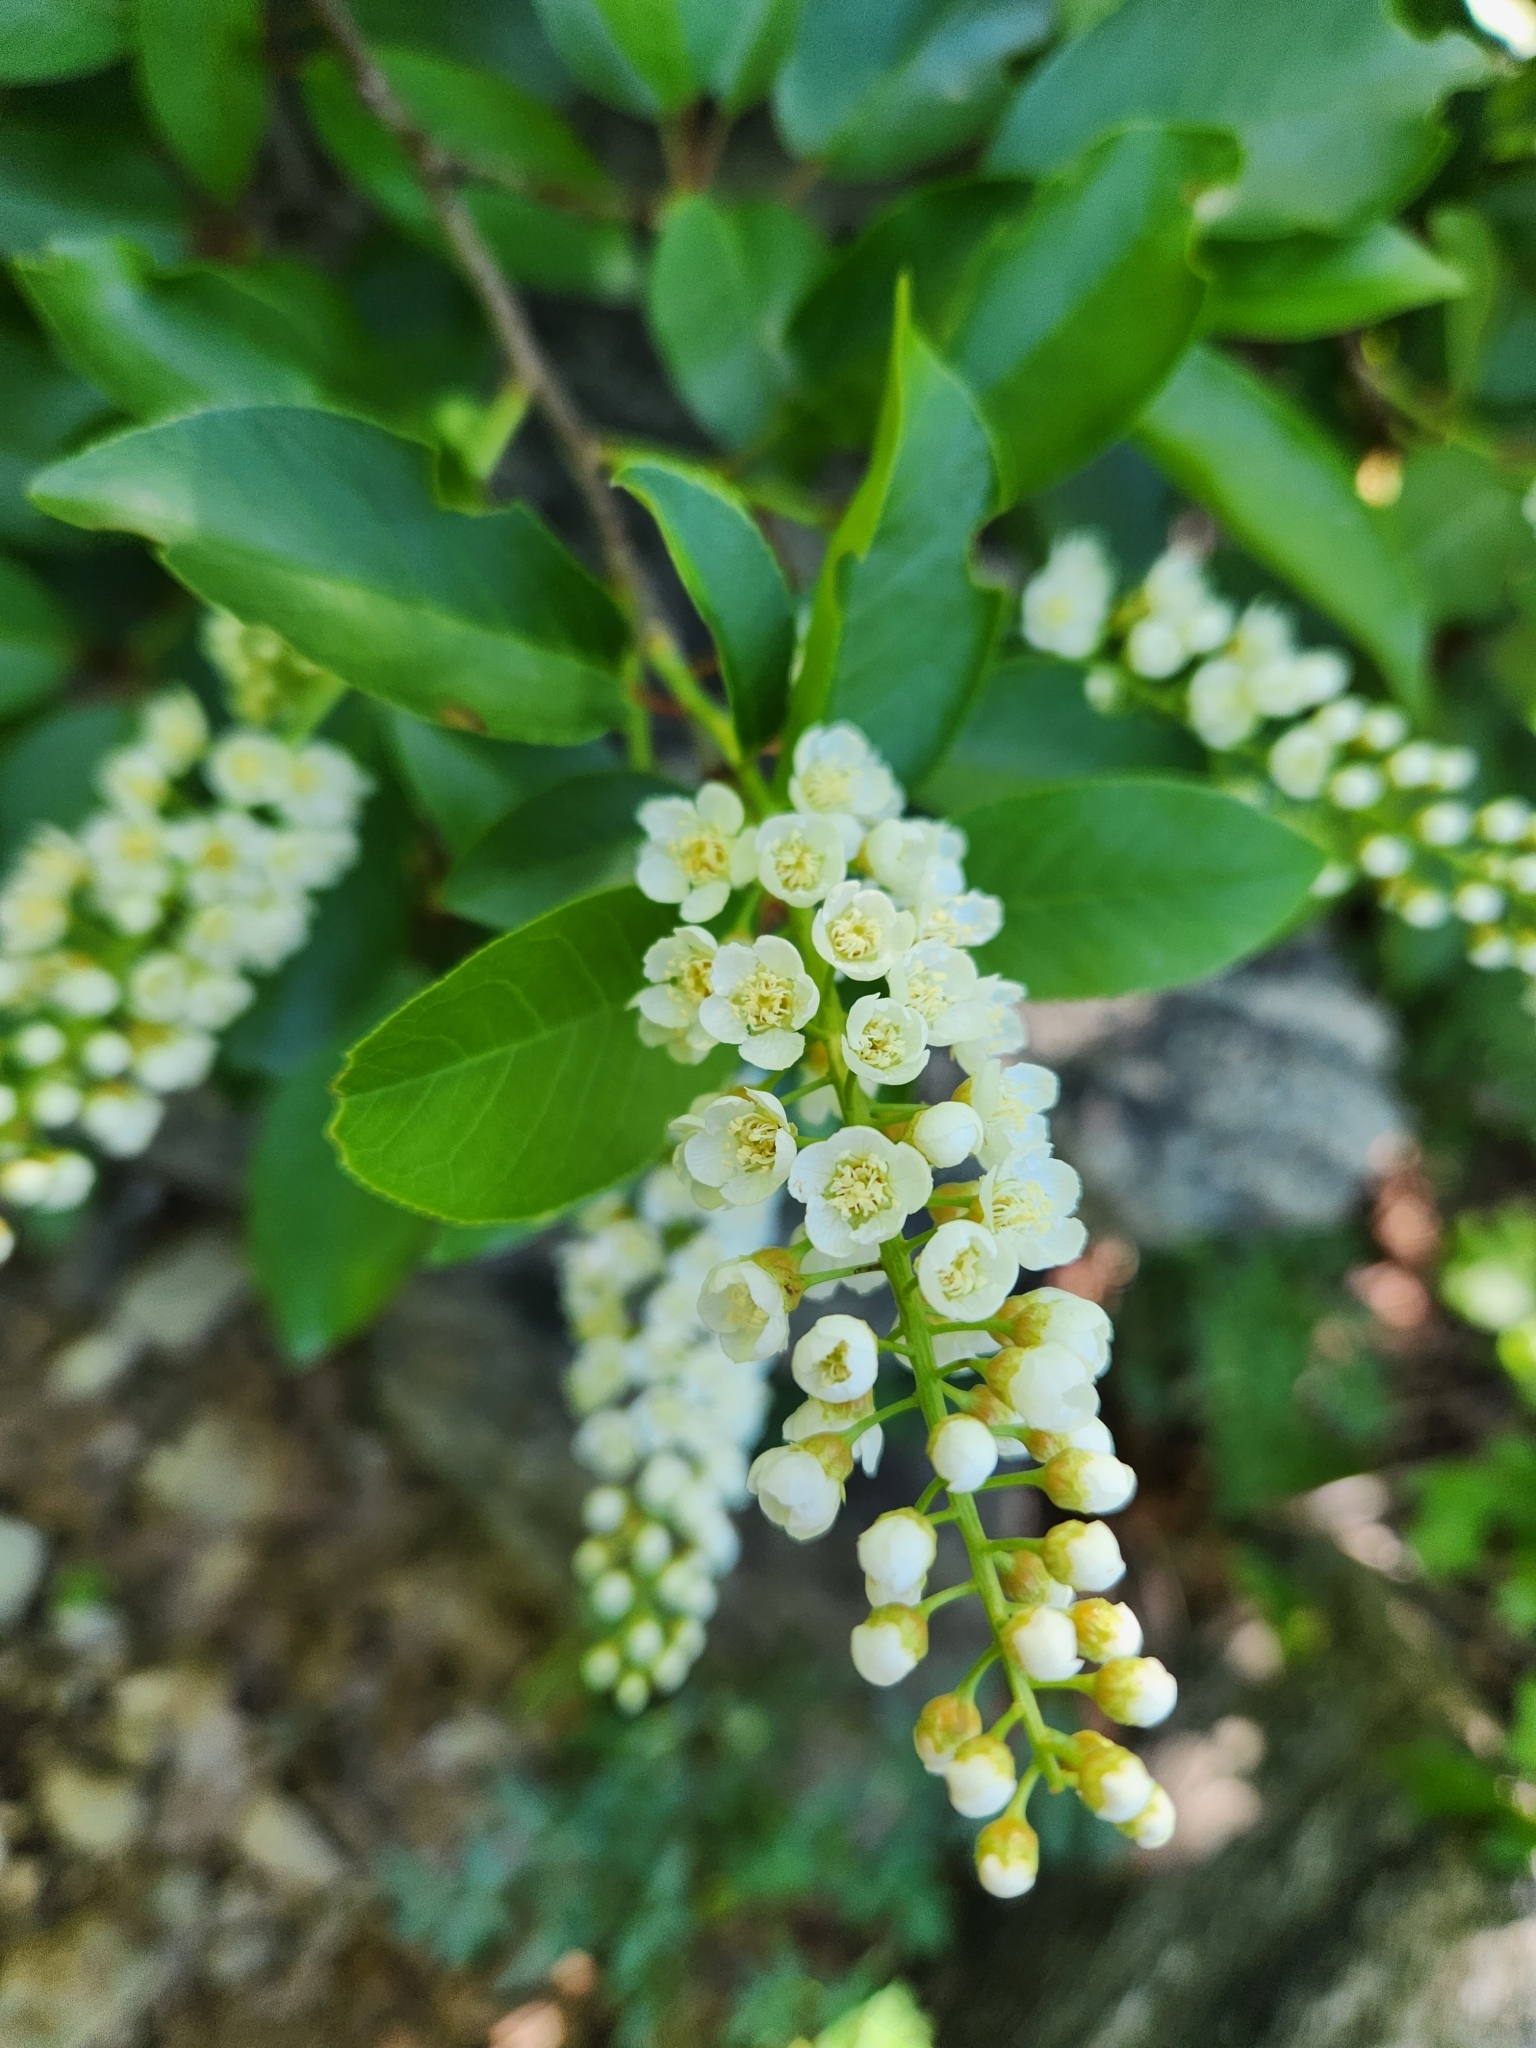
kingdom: Plantae
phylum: Tracheophyta
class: Magnoliopsida
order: Rosales
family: Rosaceae
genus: Prunus
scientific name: Prunus virginiana
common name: Chokecherry
